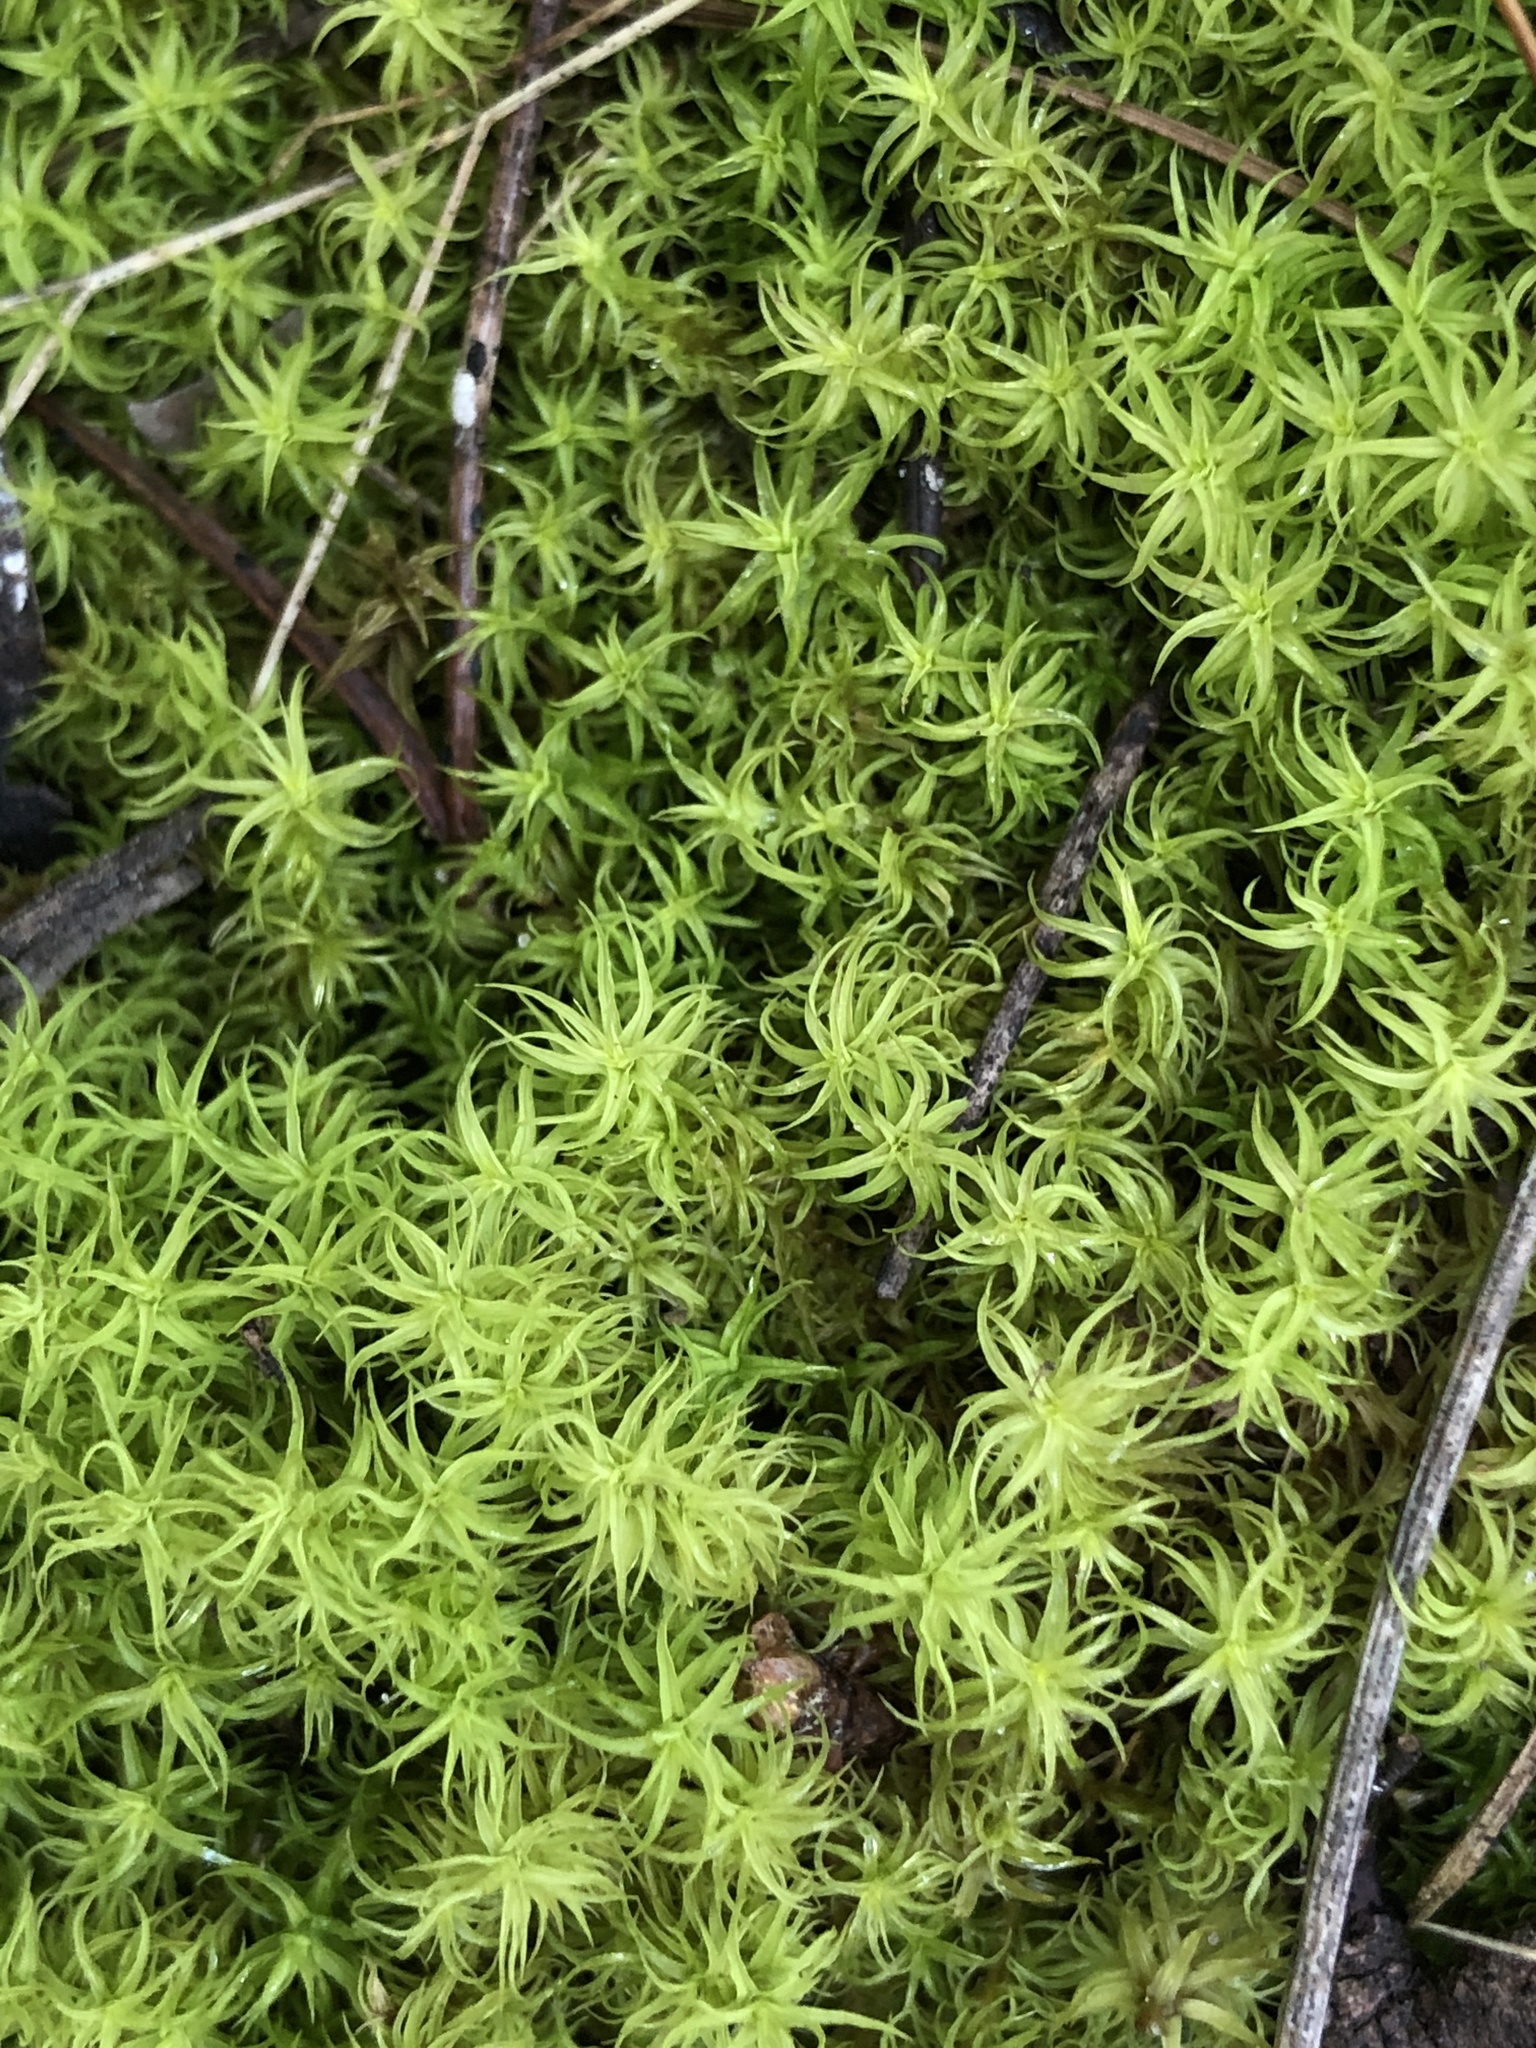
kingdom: Plantae
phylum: Bryophyta
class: Bryopsida
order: Pottiales
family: Pottiaceae
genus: Pleurochaete
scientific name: Pleurochaete squarrosa
